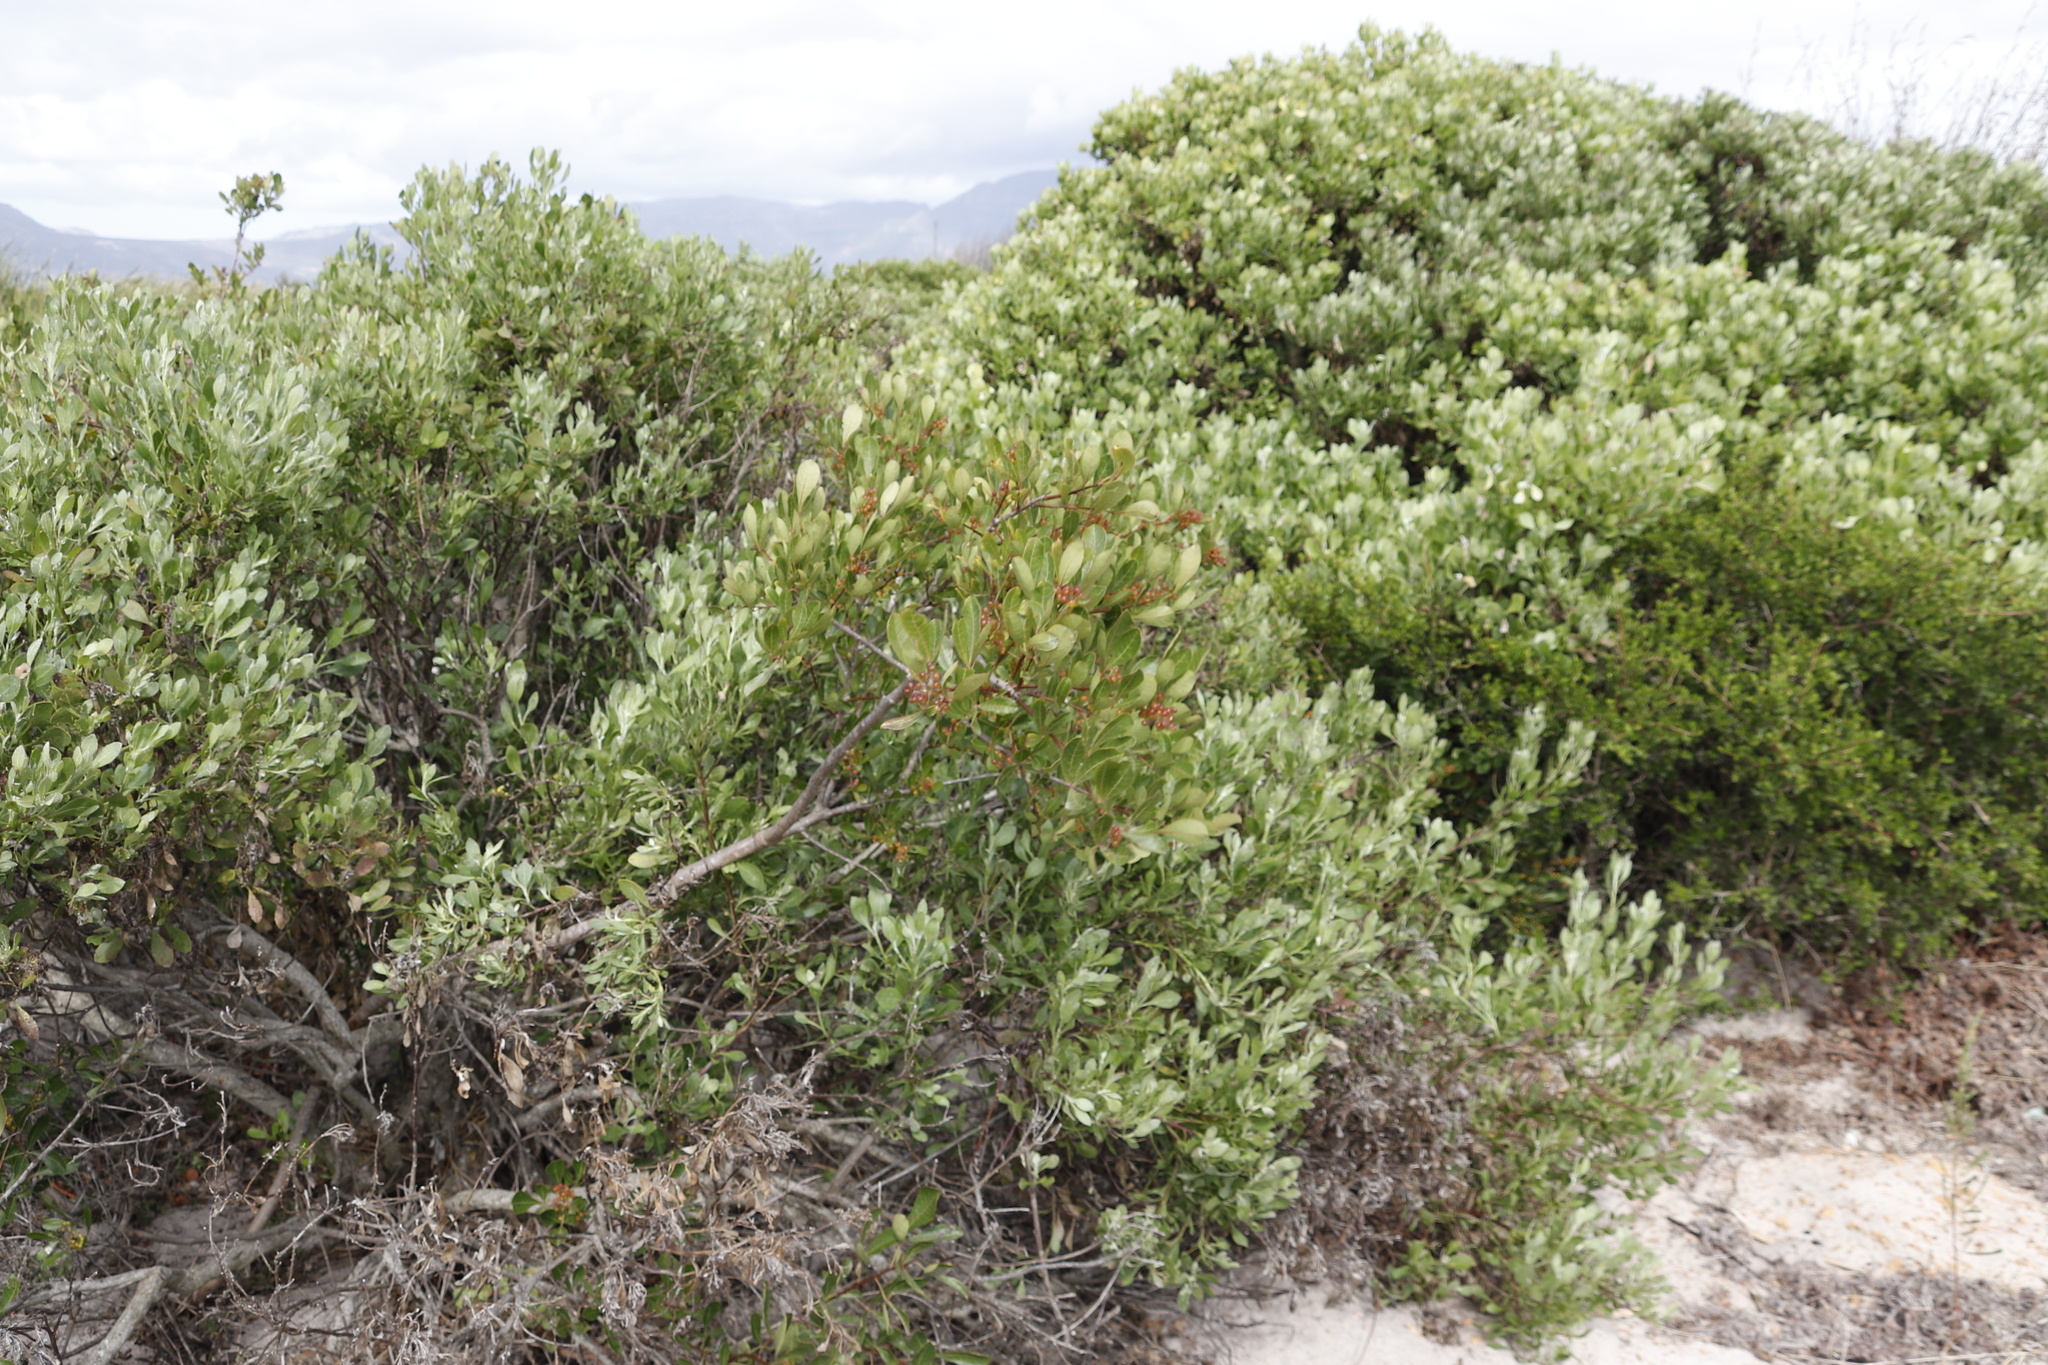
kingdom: Plantae
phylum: Tracheophyta
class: Magnoliopsida
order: Sapindales
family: Anacardiaceae
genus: Searsia
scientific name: Searsia laevigata
